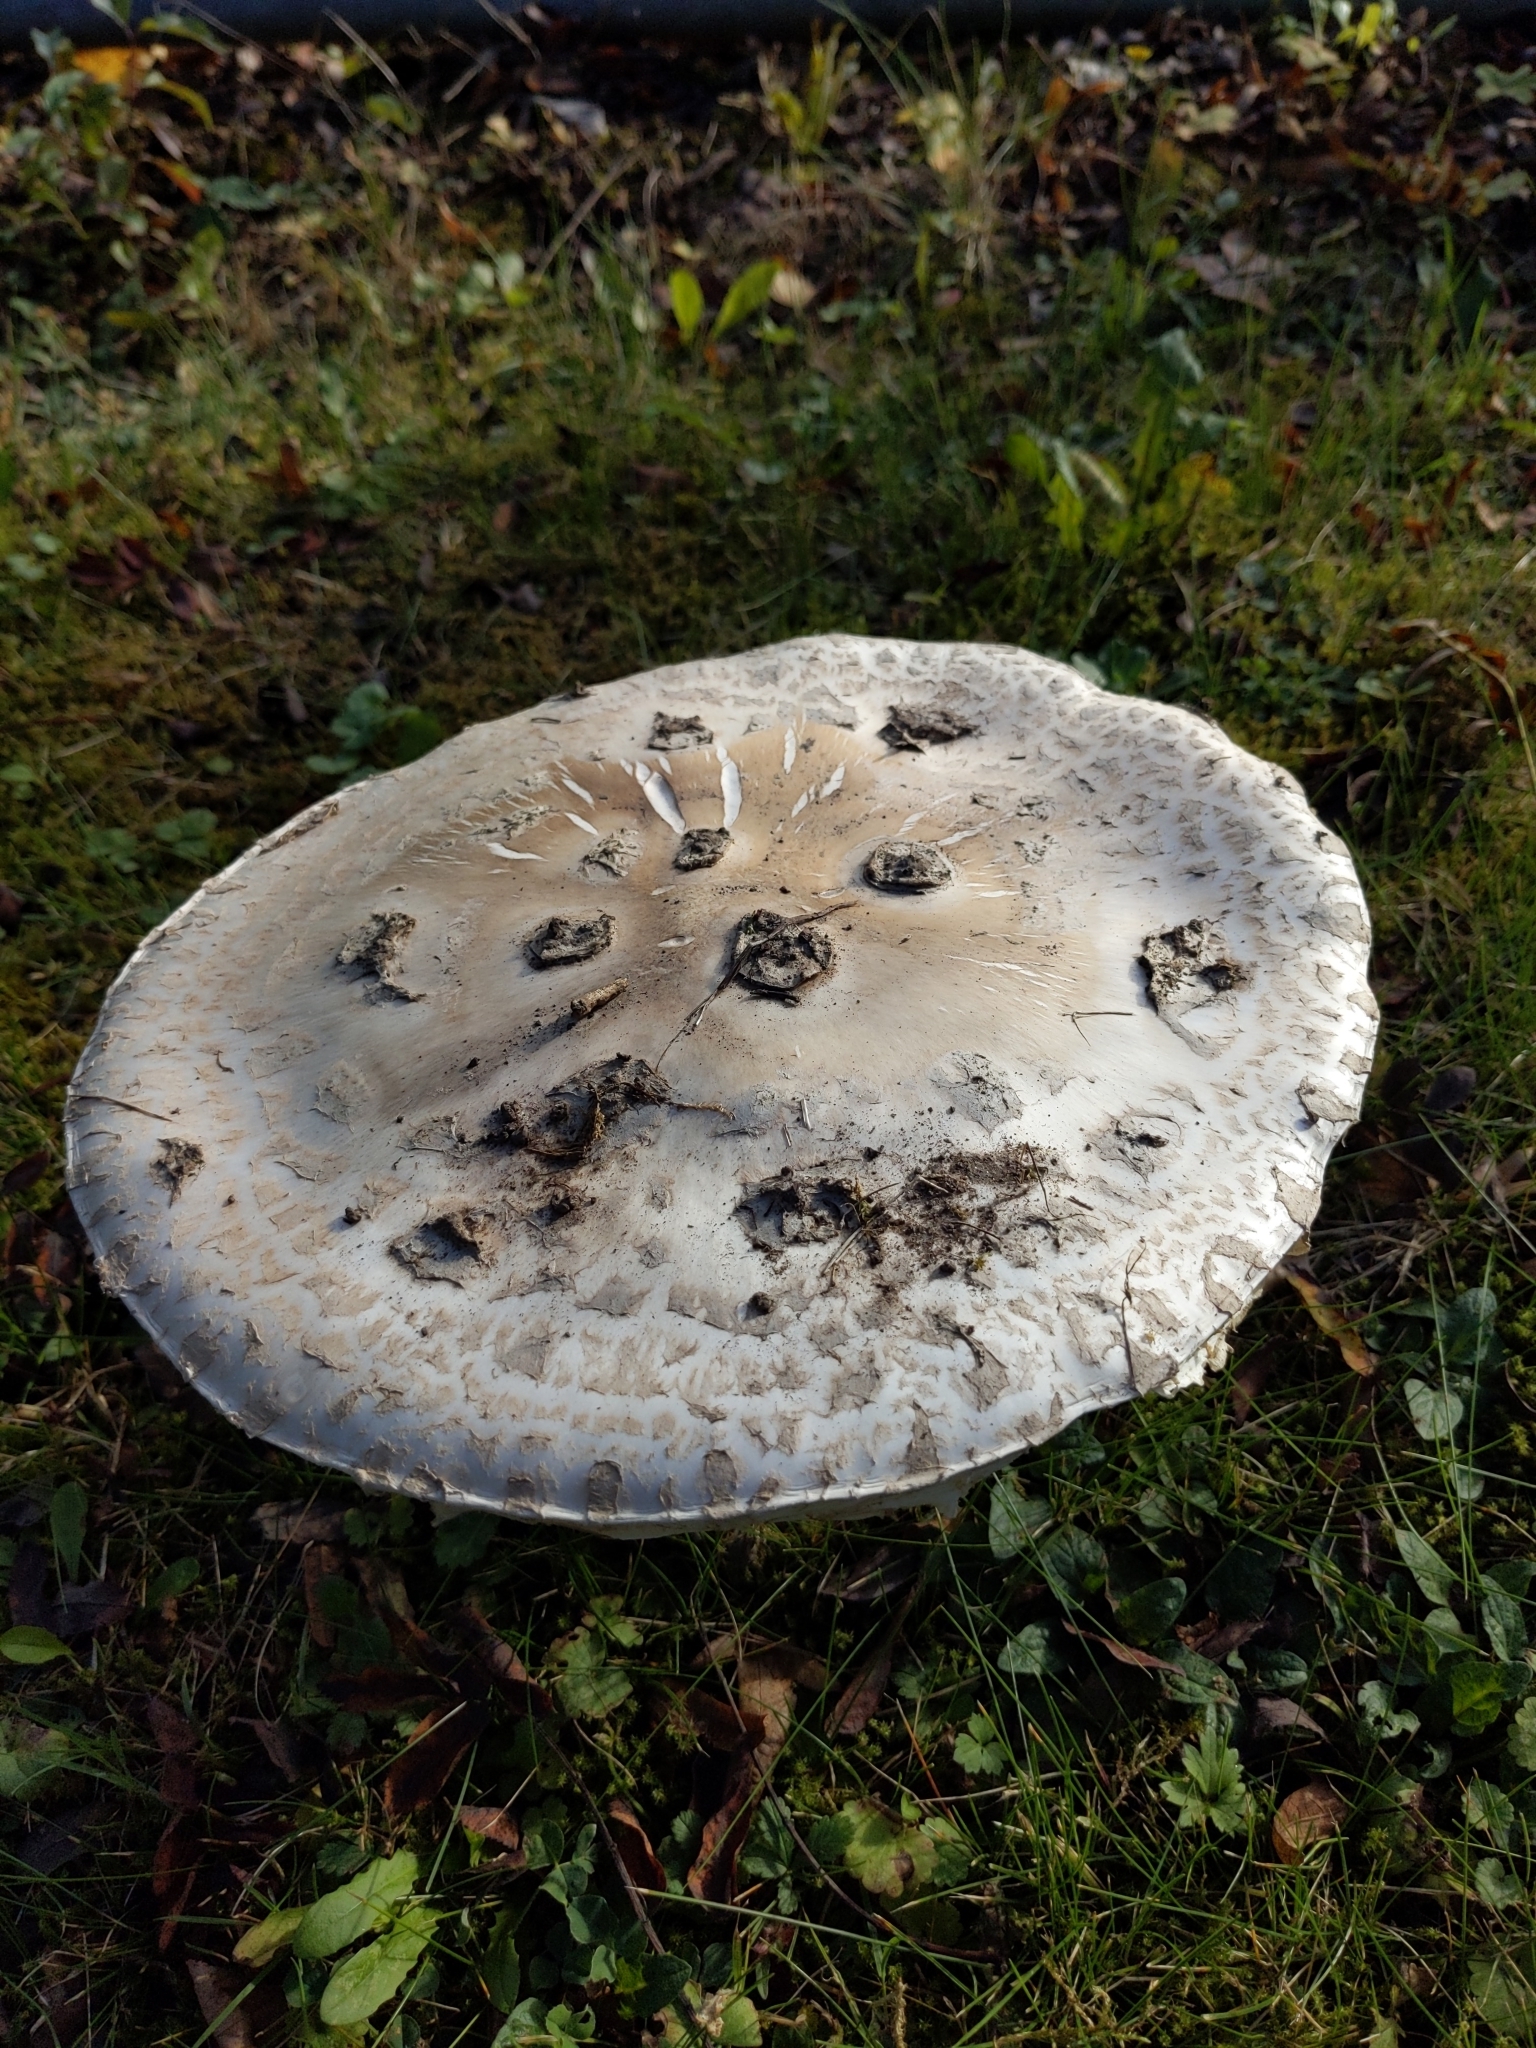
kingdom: Fungi
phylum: Basidiomycota
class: Agaricomycetes
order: Agaricales
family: Amanitaceae
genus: Amanita
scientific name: Amanita strobiliformis
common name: Warted amanita
